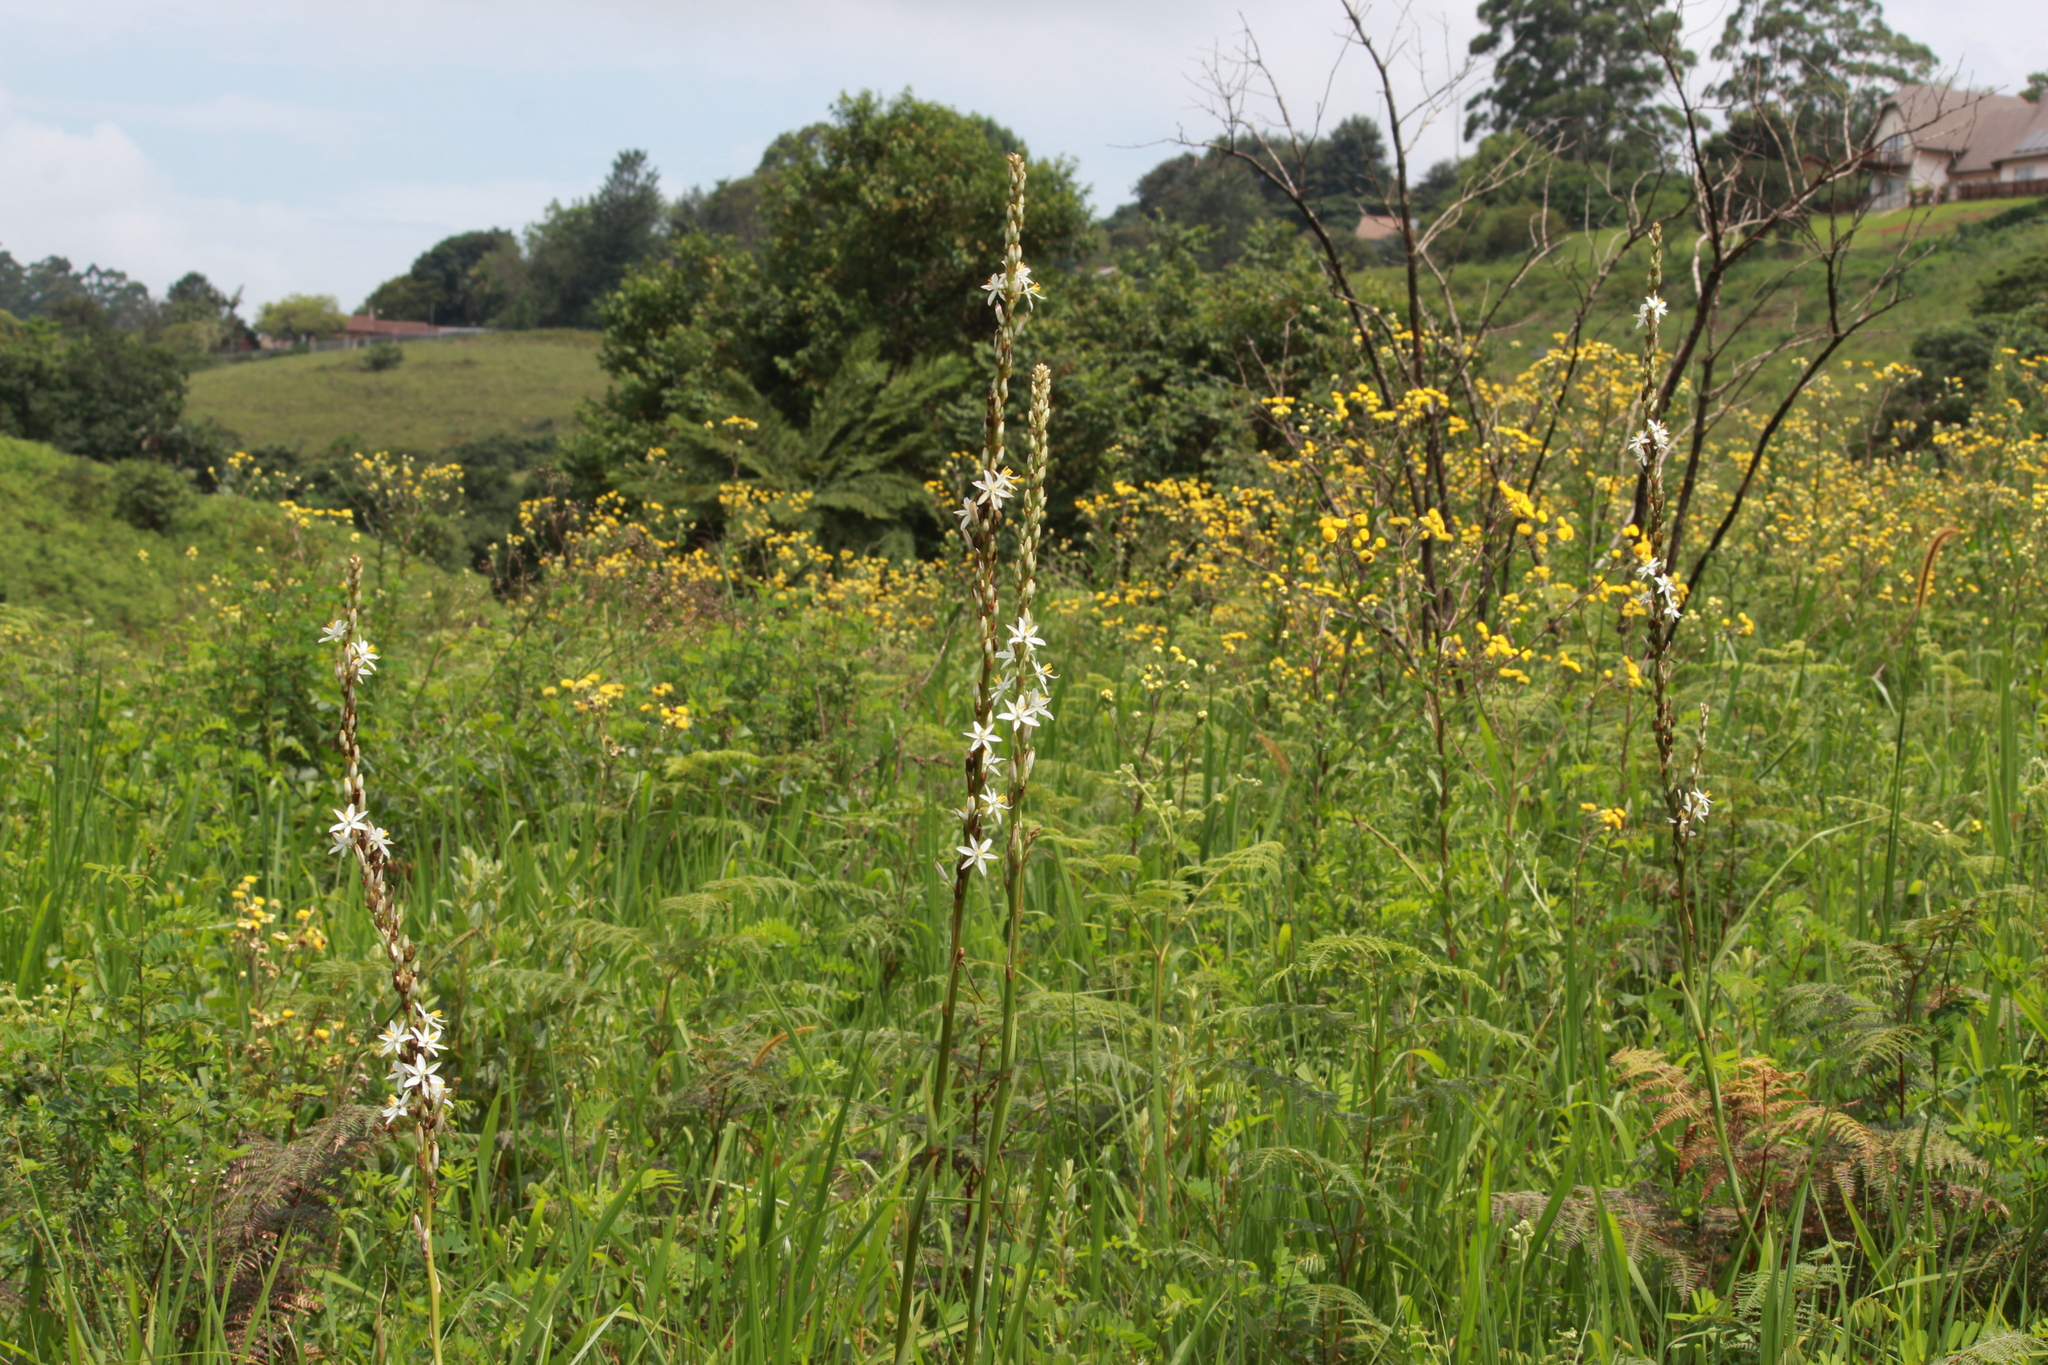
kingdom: Plantae
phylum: Tracheophyta
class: Liliopsida
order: Asparagales
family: Asparagaceae
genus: Chlorophytum
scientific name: Chlorophytum krookianum
